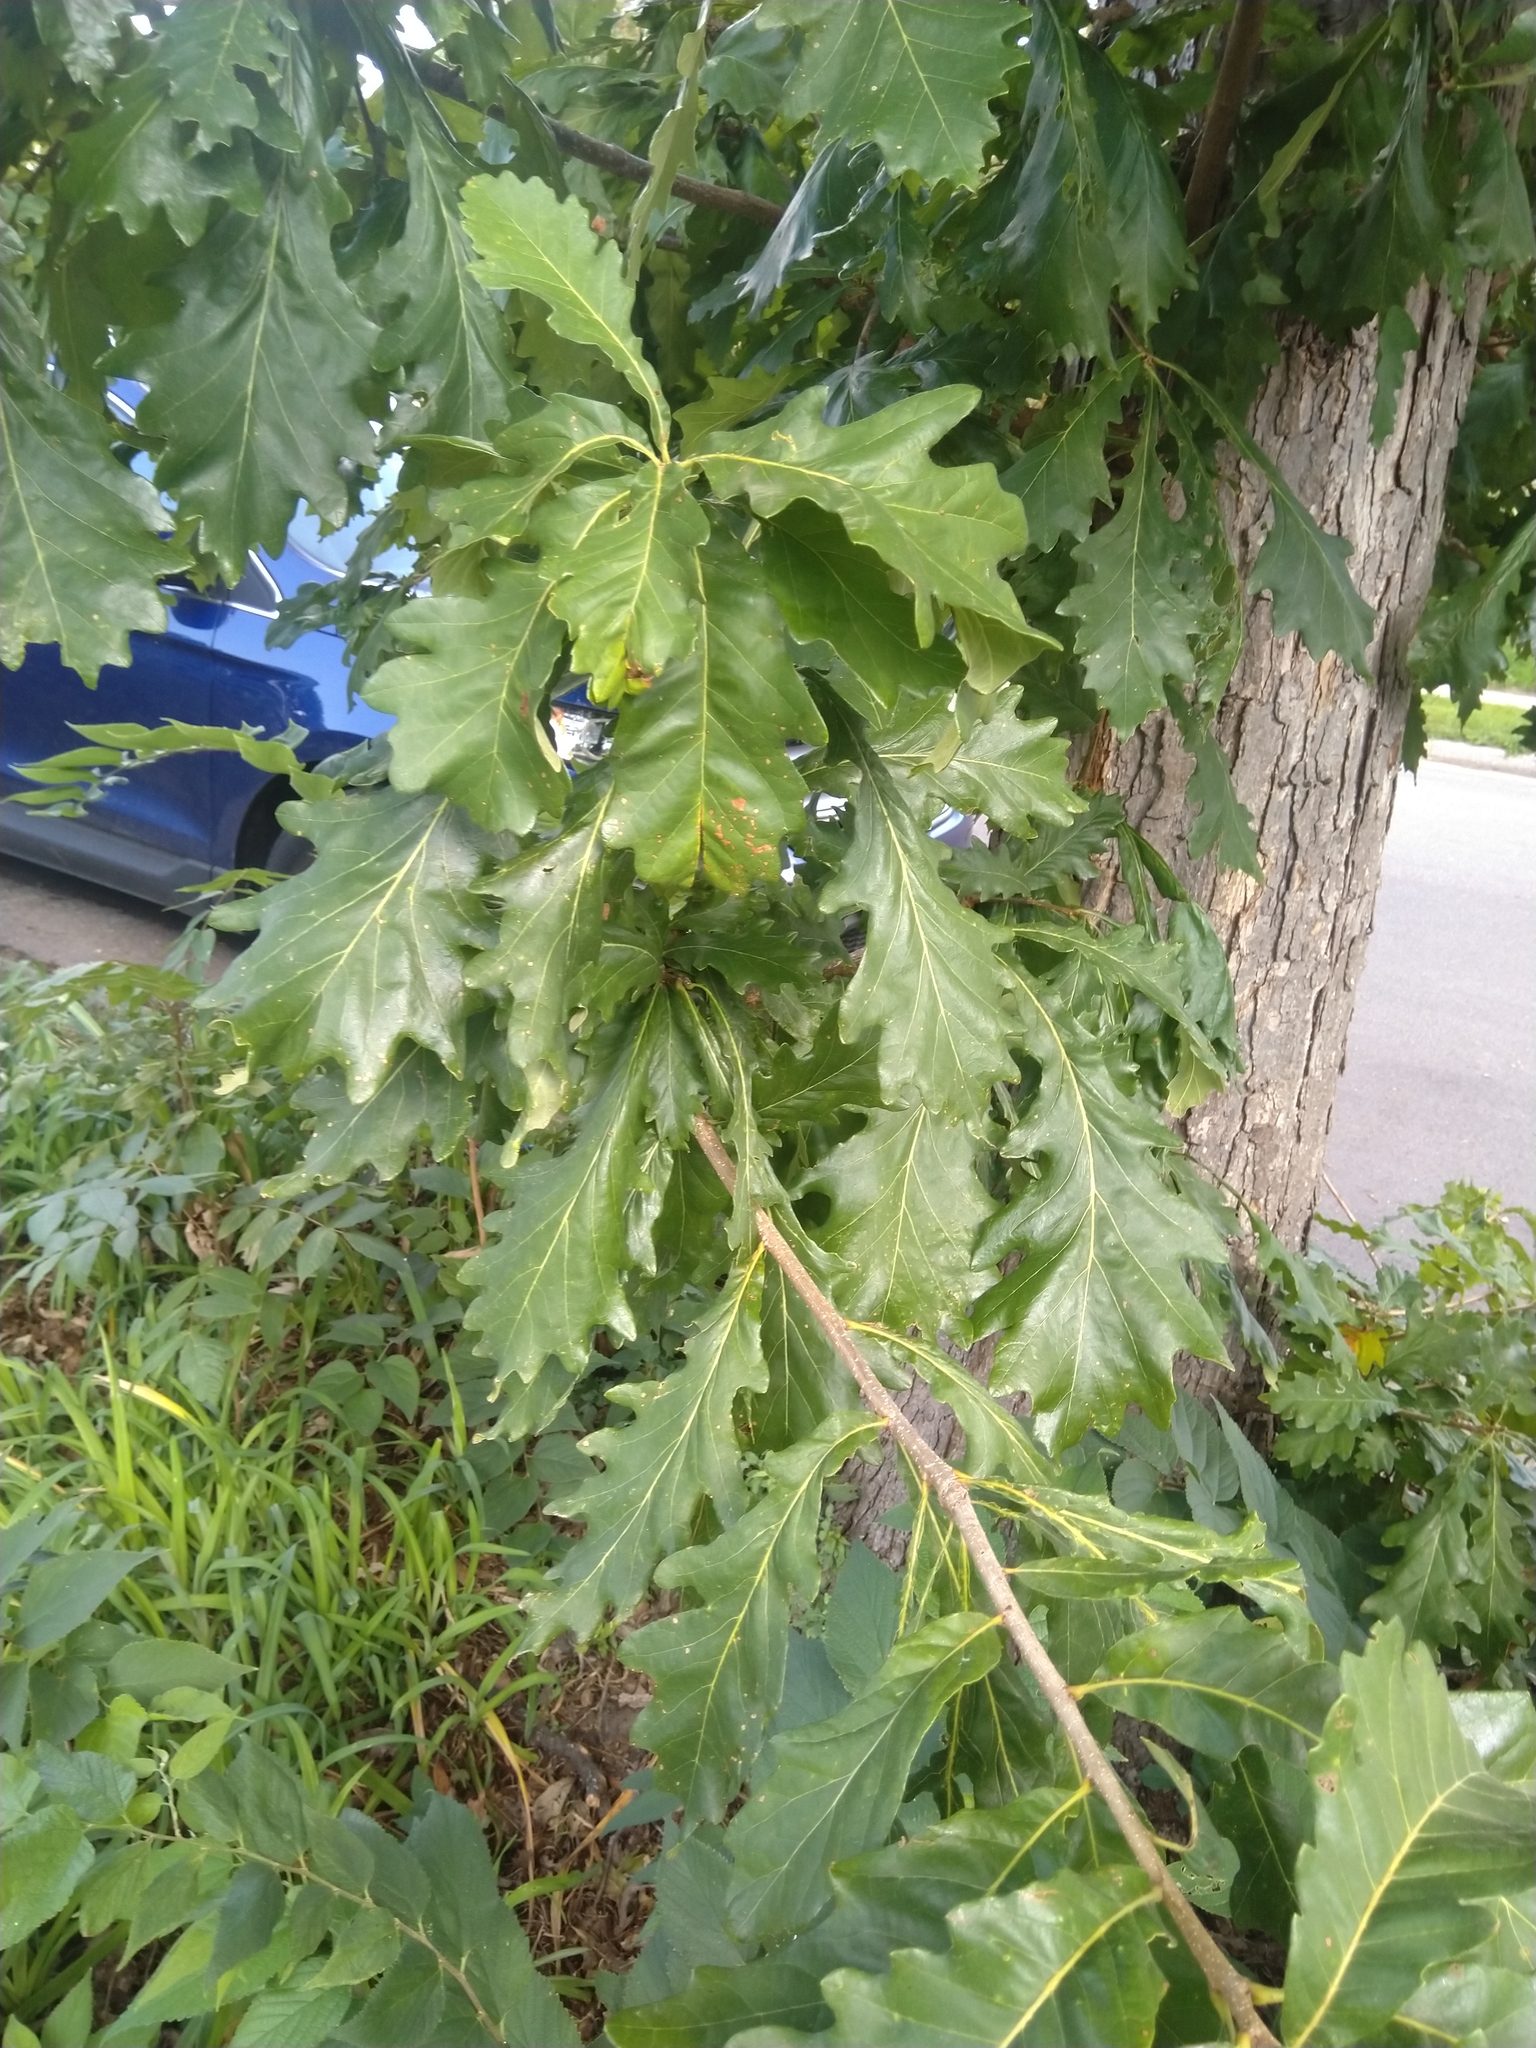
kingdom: Animalia
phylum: Arthropoda
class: Insecta
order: Hymenoptera
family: Cynipidae
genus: Andricus
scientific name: Andricus
